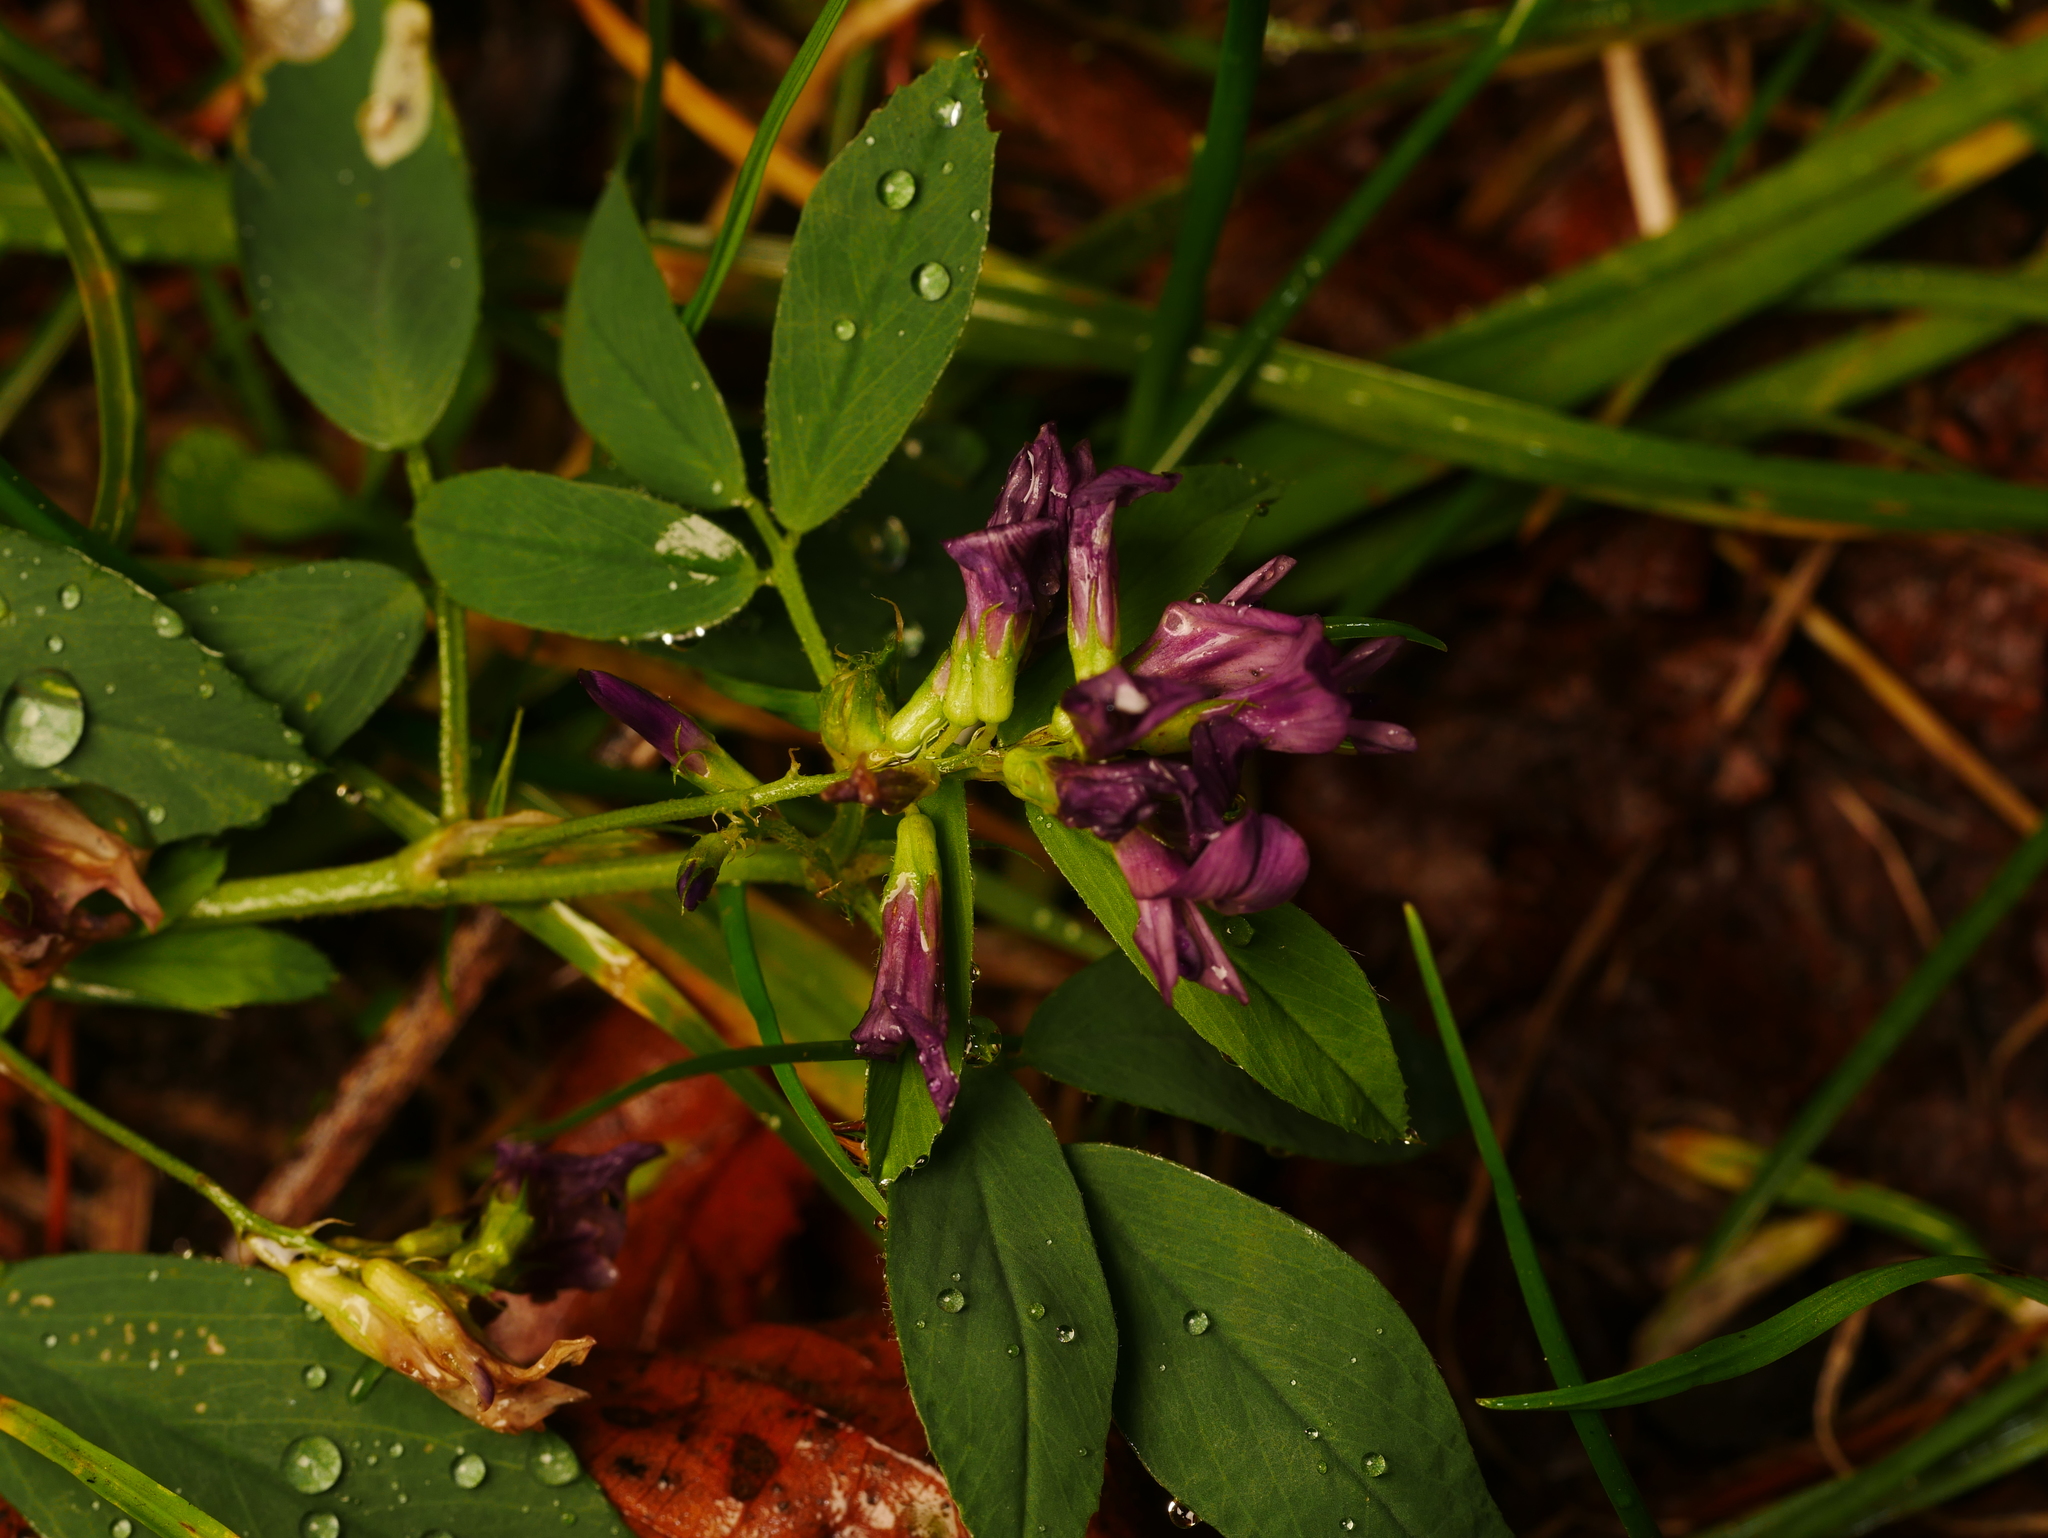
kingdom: Plantae
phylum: Tracheophyta
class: Magnoliopsida
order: Fabales
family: Fabaceae
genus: Medicago
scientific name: Medicago sativa
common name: Alfalfa
